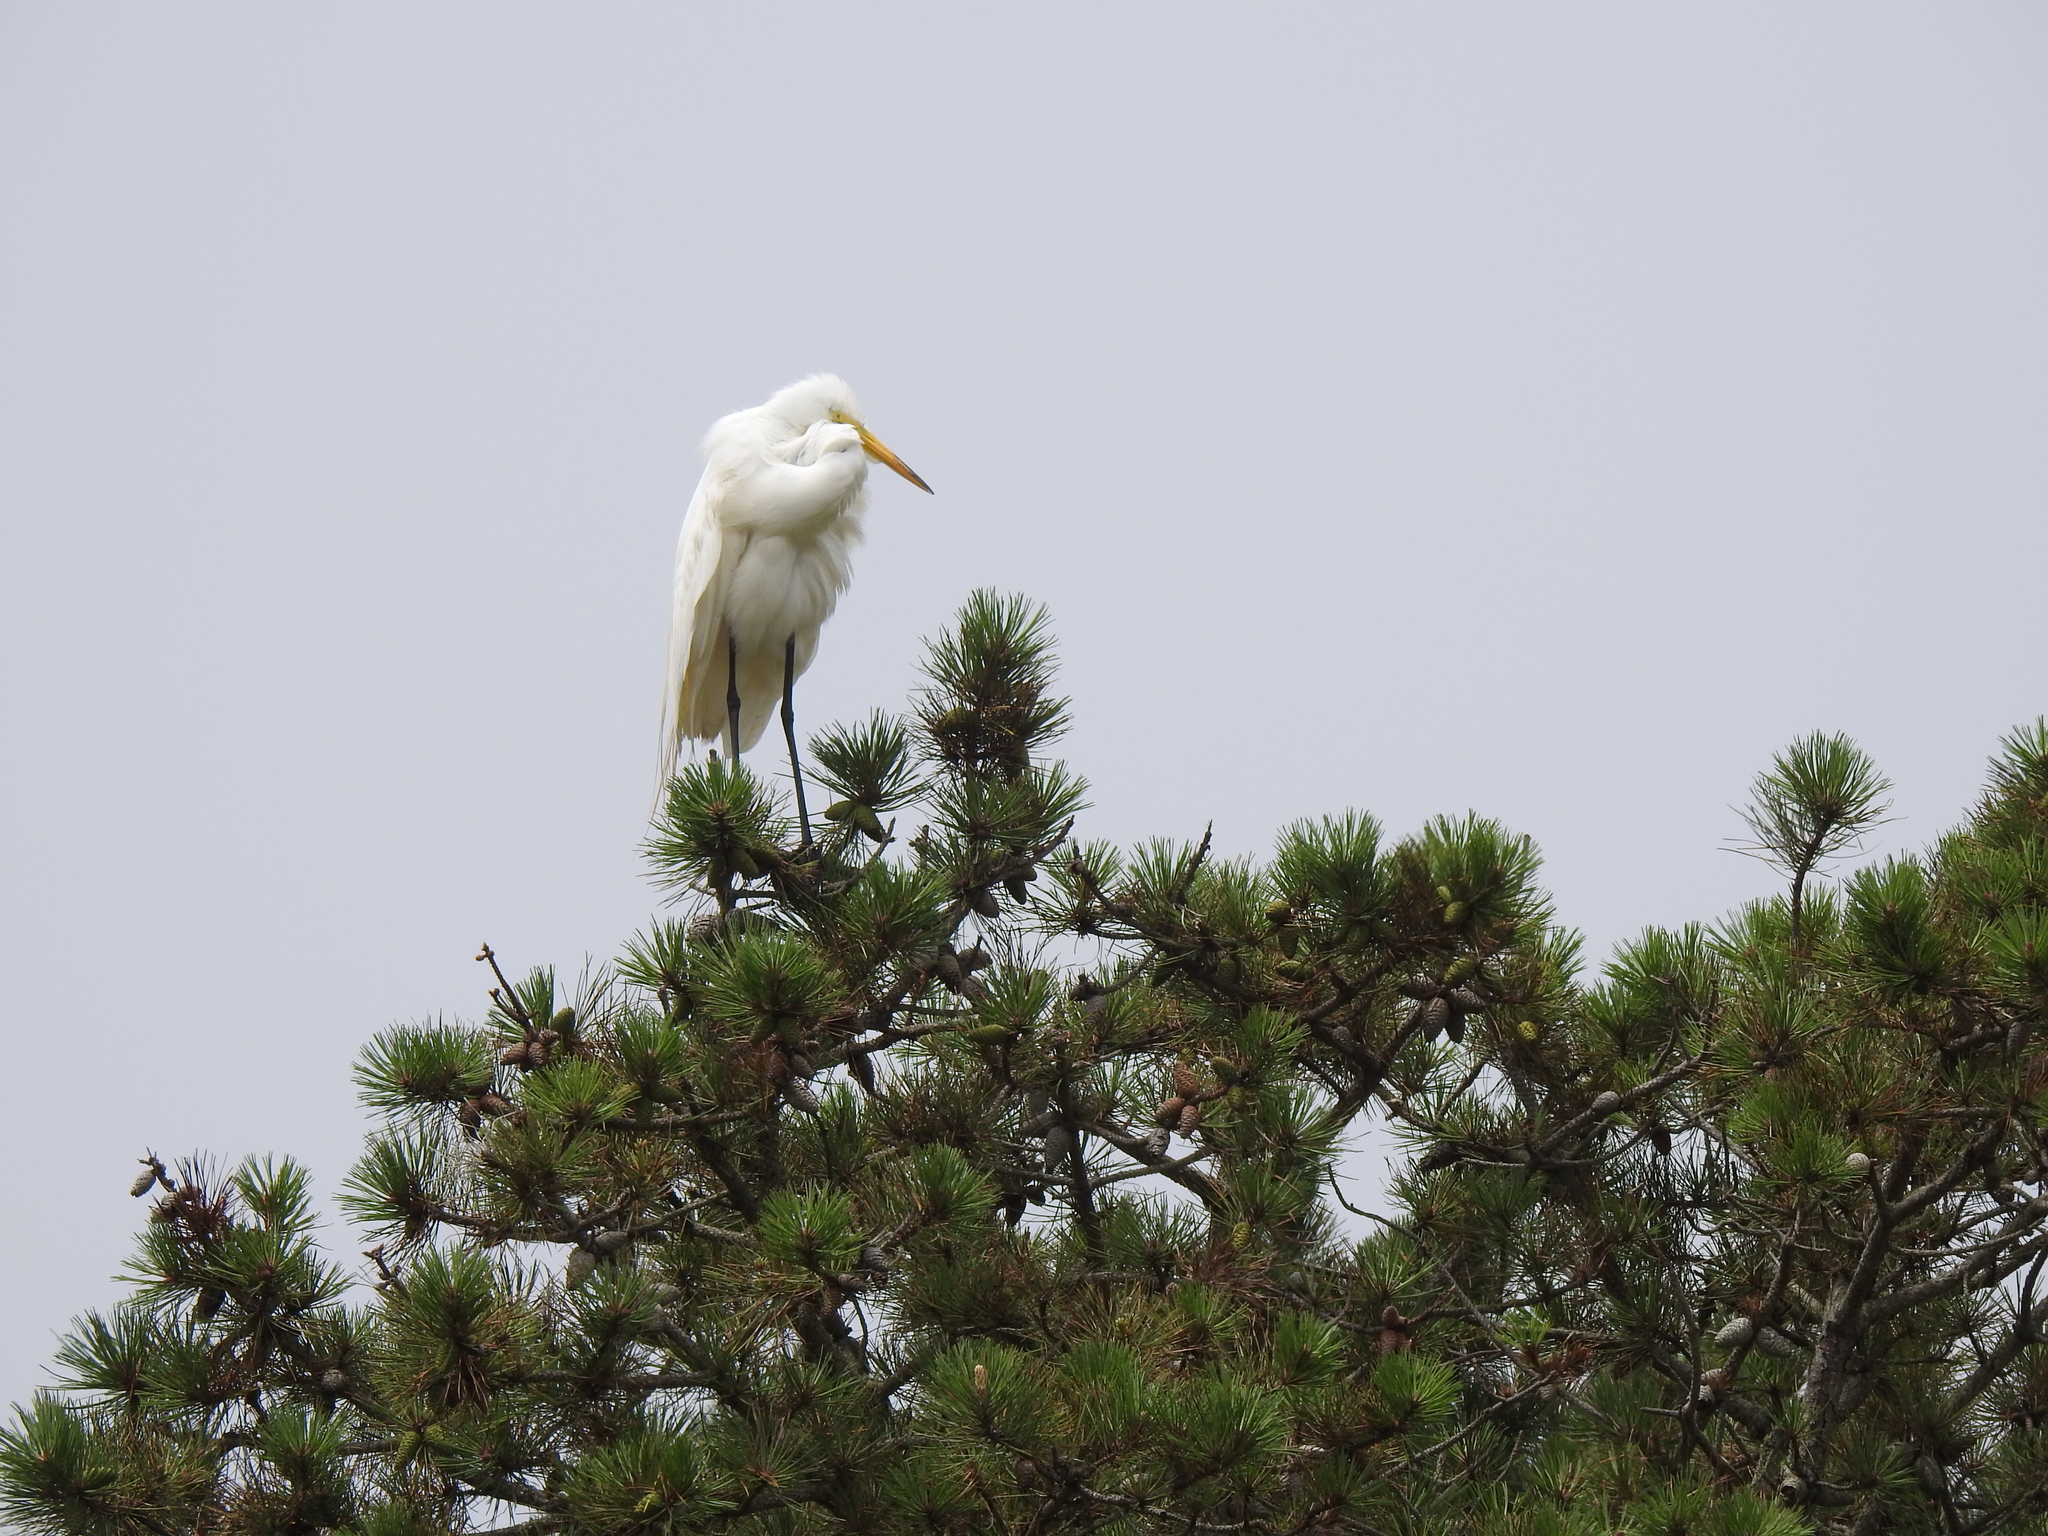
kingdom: Animalia
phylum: Chordata
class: Aves
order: Pelecaniformes
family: Ardeidae
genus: Ardea
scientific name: Ardea alba
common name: Great egret
